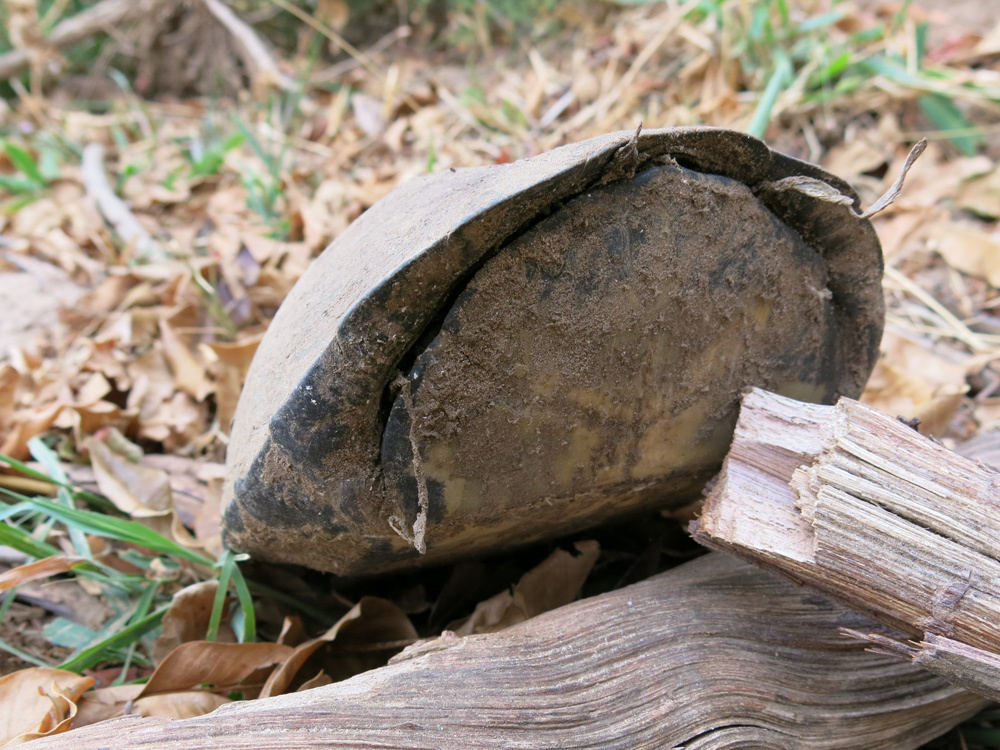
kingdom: Animalia
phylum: Chordata
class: Testudines
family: Pelomedusidae
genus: Pelusios
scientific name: Pelusios sinuatus
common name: Serrated hinged terrapin
